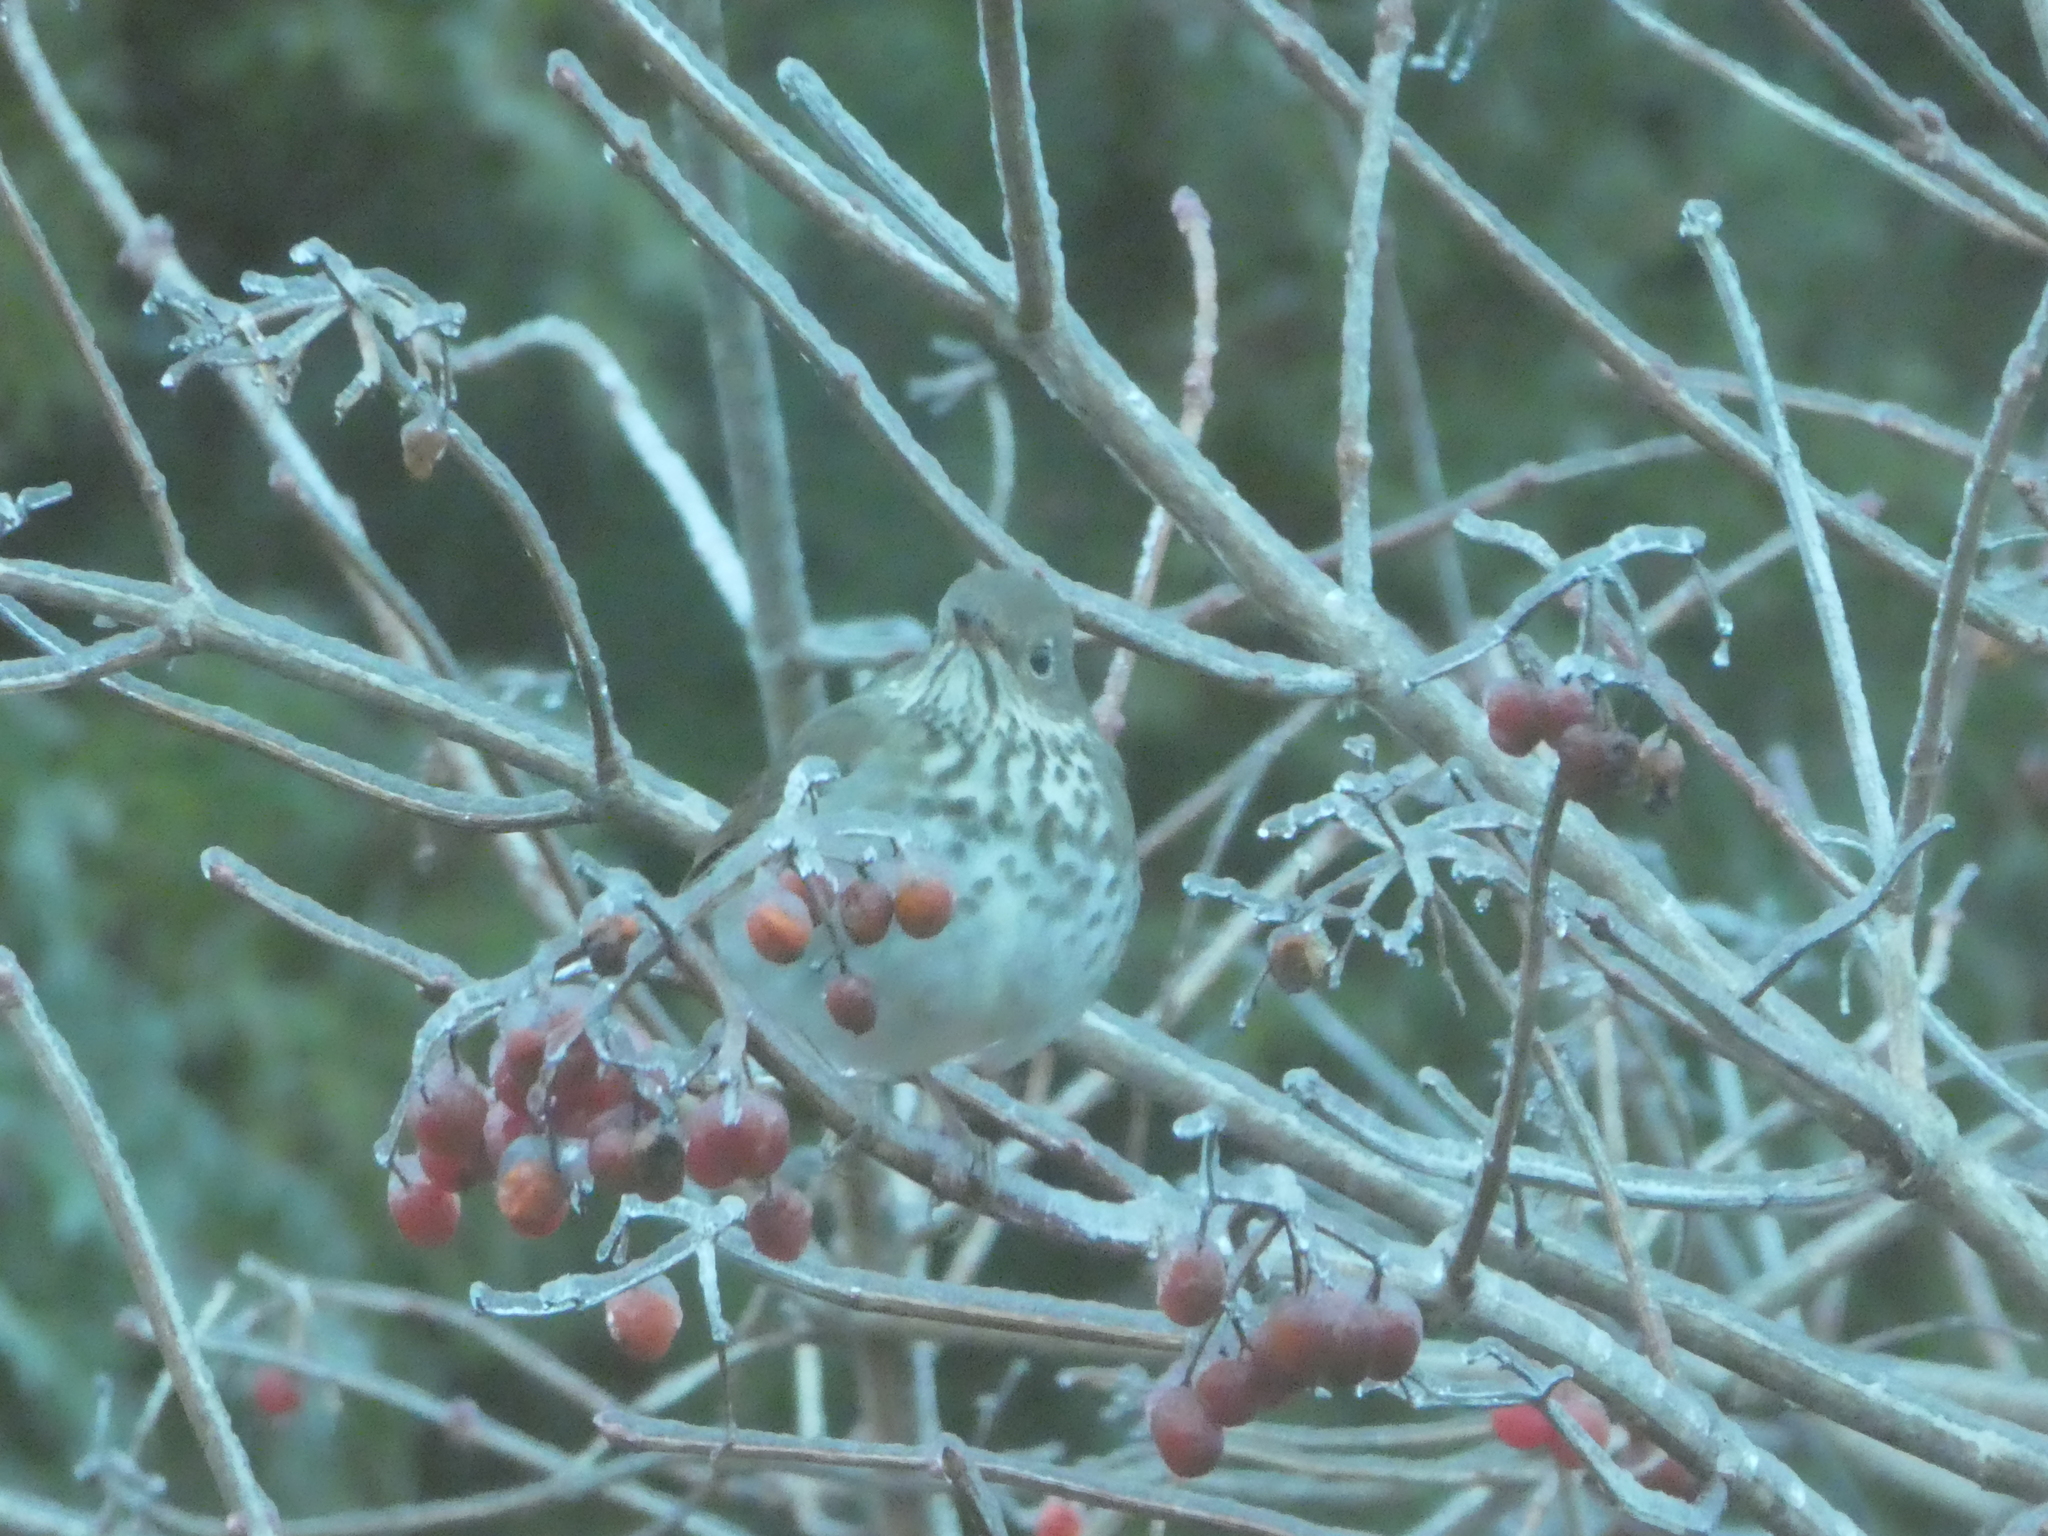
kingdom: Animalia
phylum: Chordata
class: Aves
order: Passeriformes
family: Turdidae
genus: Catharus
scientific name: Catharus guttatus
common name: Hermit thrush
